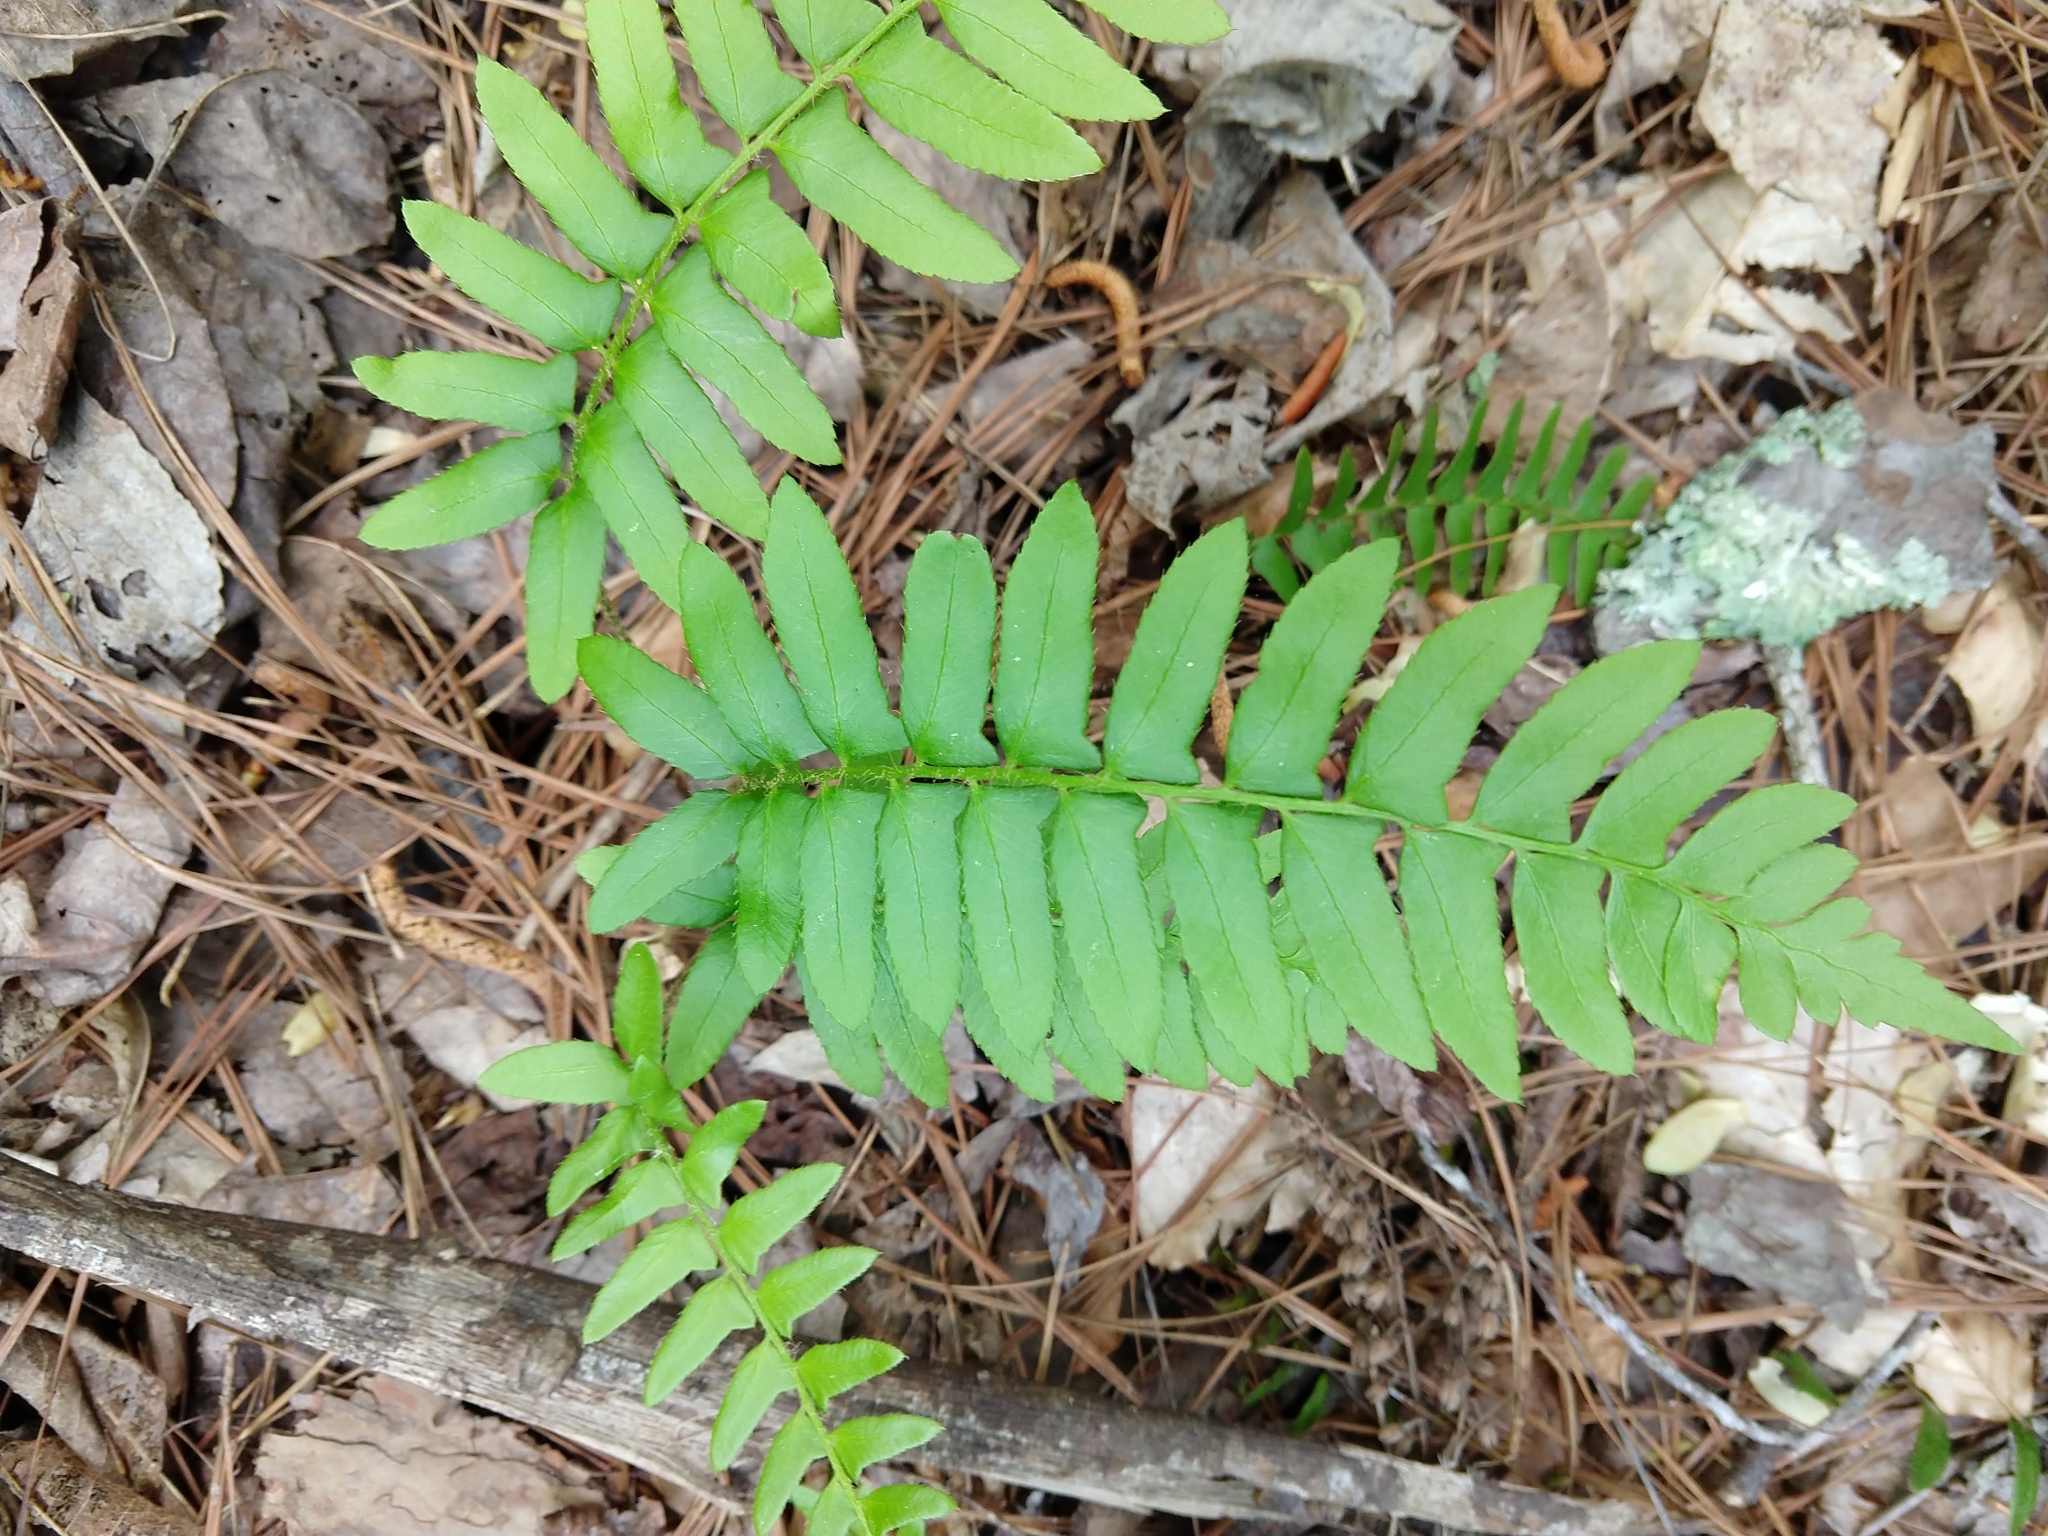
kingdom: Plantae
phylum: Tracheophyta
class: Polypodiopsida
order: Polypodiales
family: Dryopteridaceae
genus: Polystichum
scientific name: Polystichum acrostichoides
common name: Christmas fern
